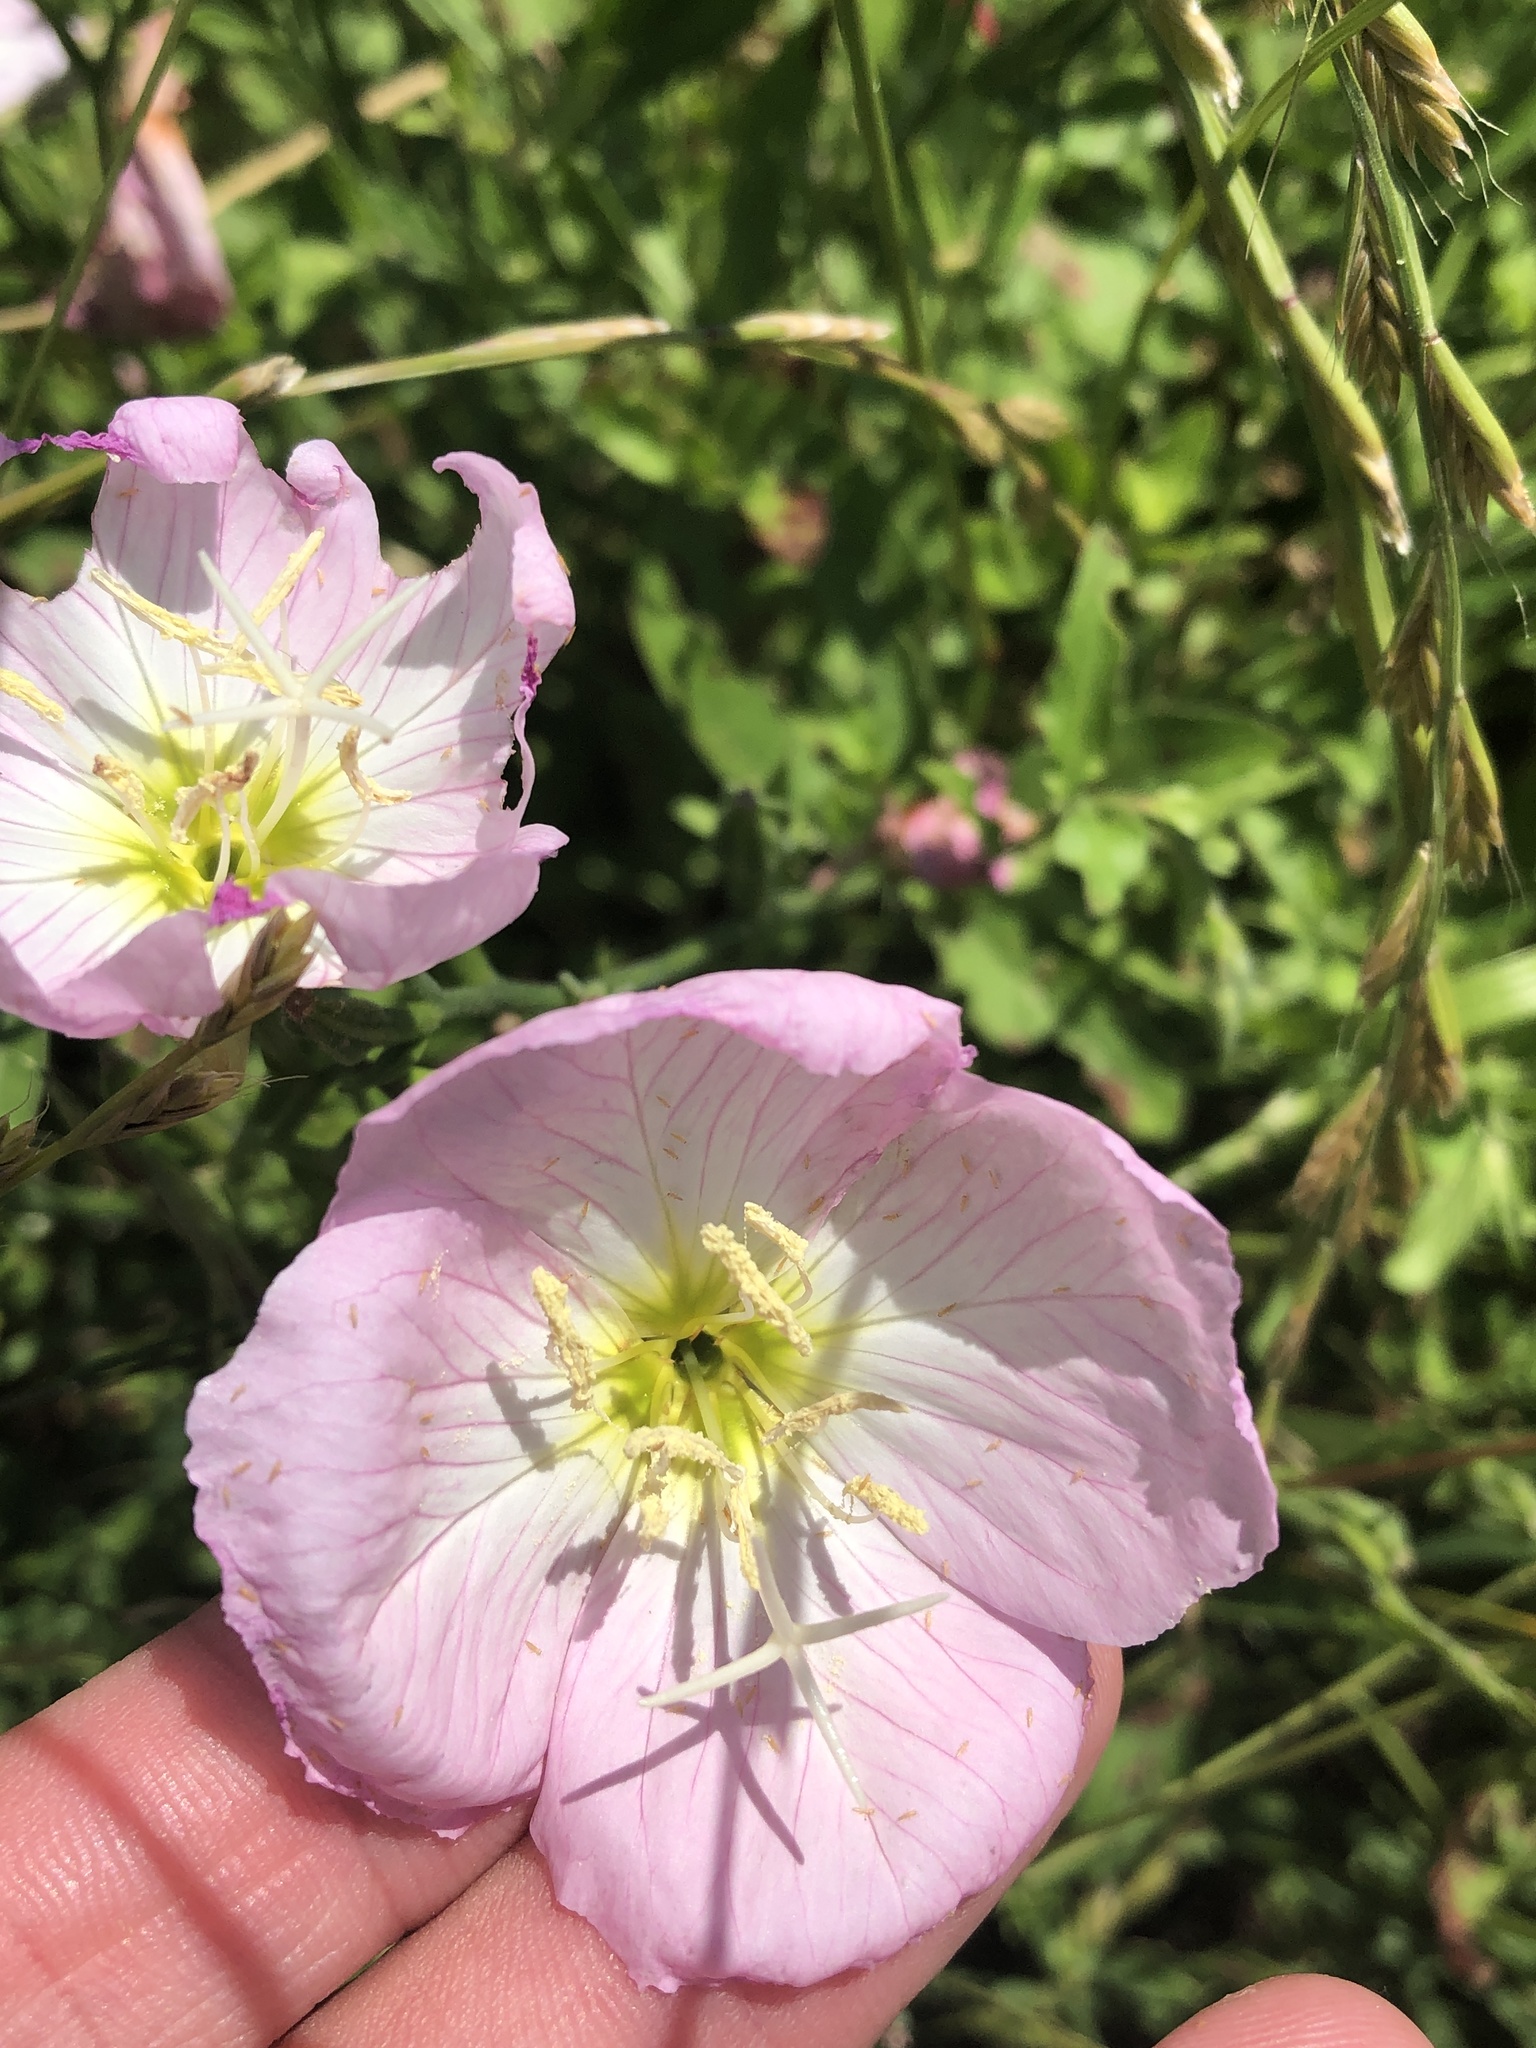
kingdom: Plantae
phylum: Tracheophyta
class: Magnoliopsida
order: Myrtales
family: Onagraceae
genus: Oenothera
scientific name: Oenothera speciosa
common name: White evening-primrose
